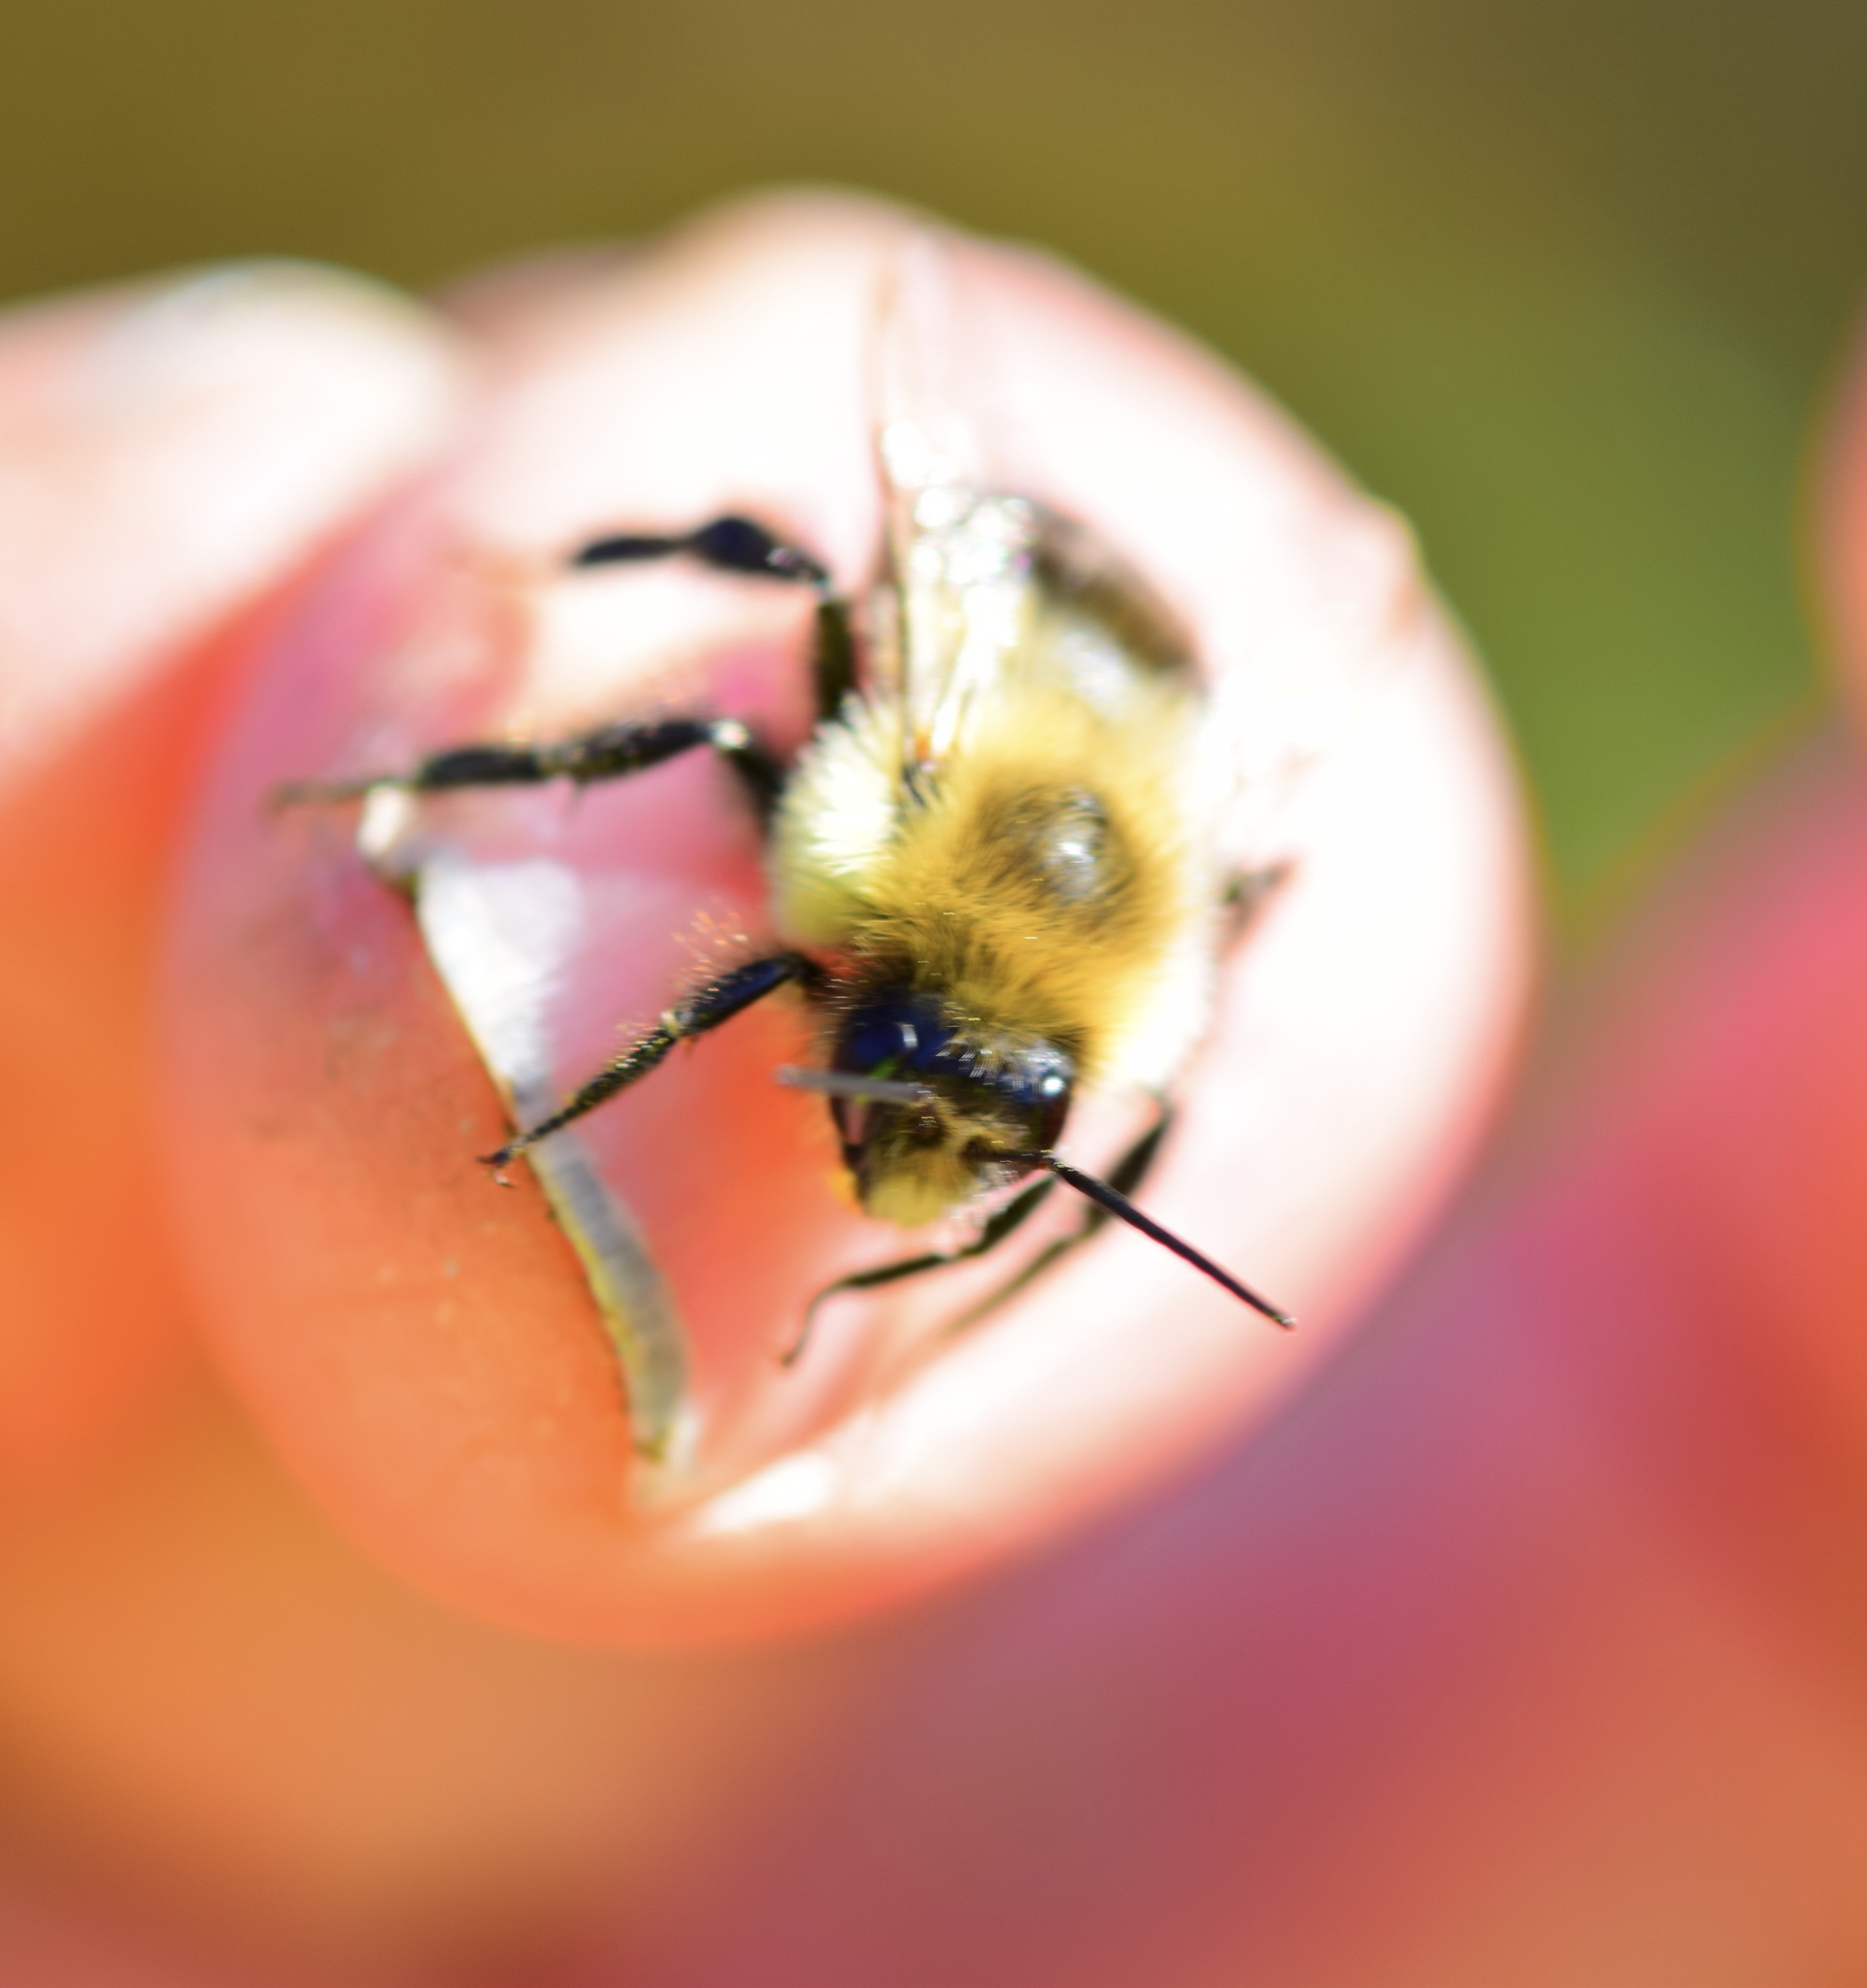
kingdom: Animalia
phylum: Arthropoda
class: Insecta
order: Hymenoptera
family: Apidae
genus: Bombus
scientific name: Bombus impatiens
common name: Common eastern bumble bee
